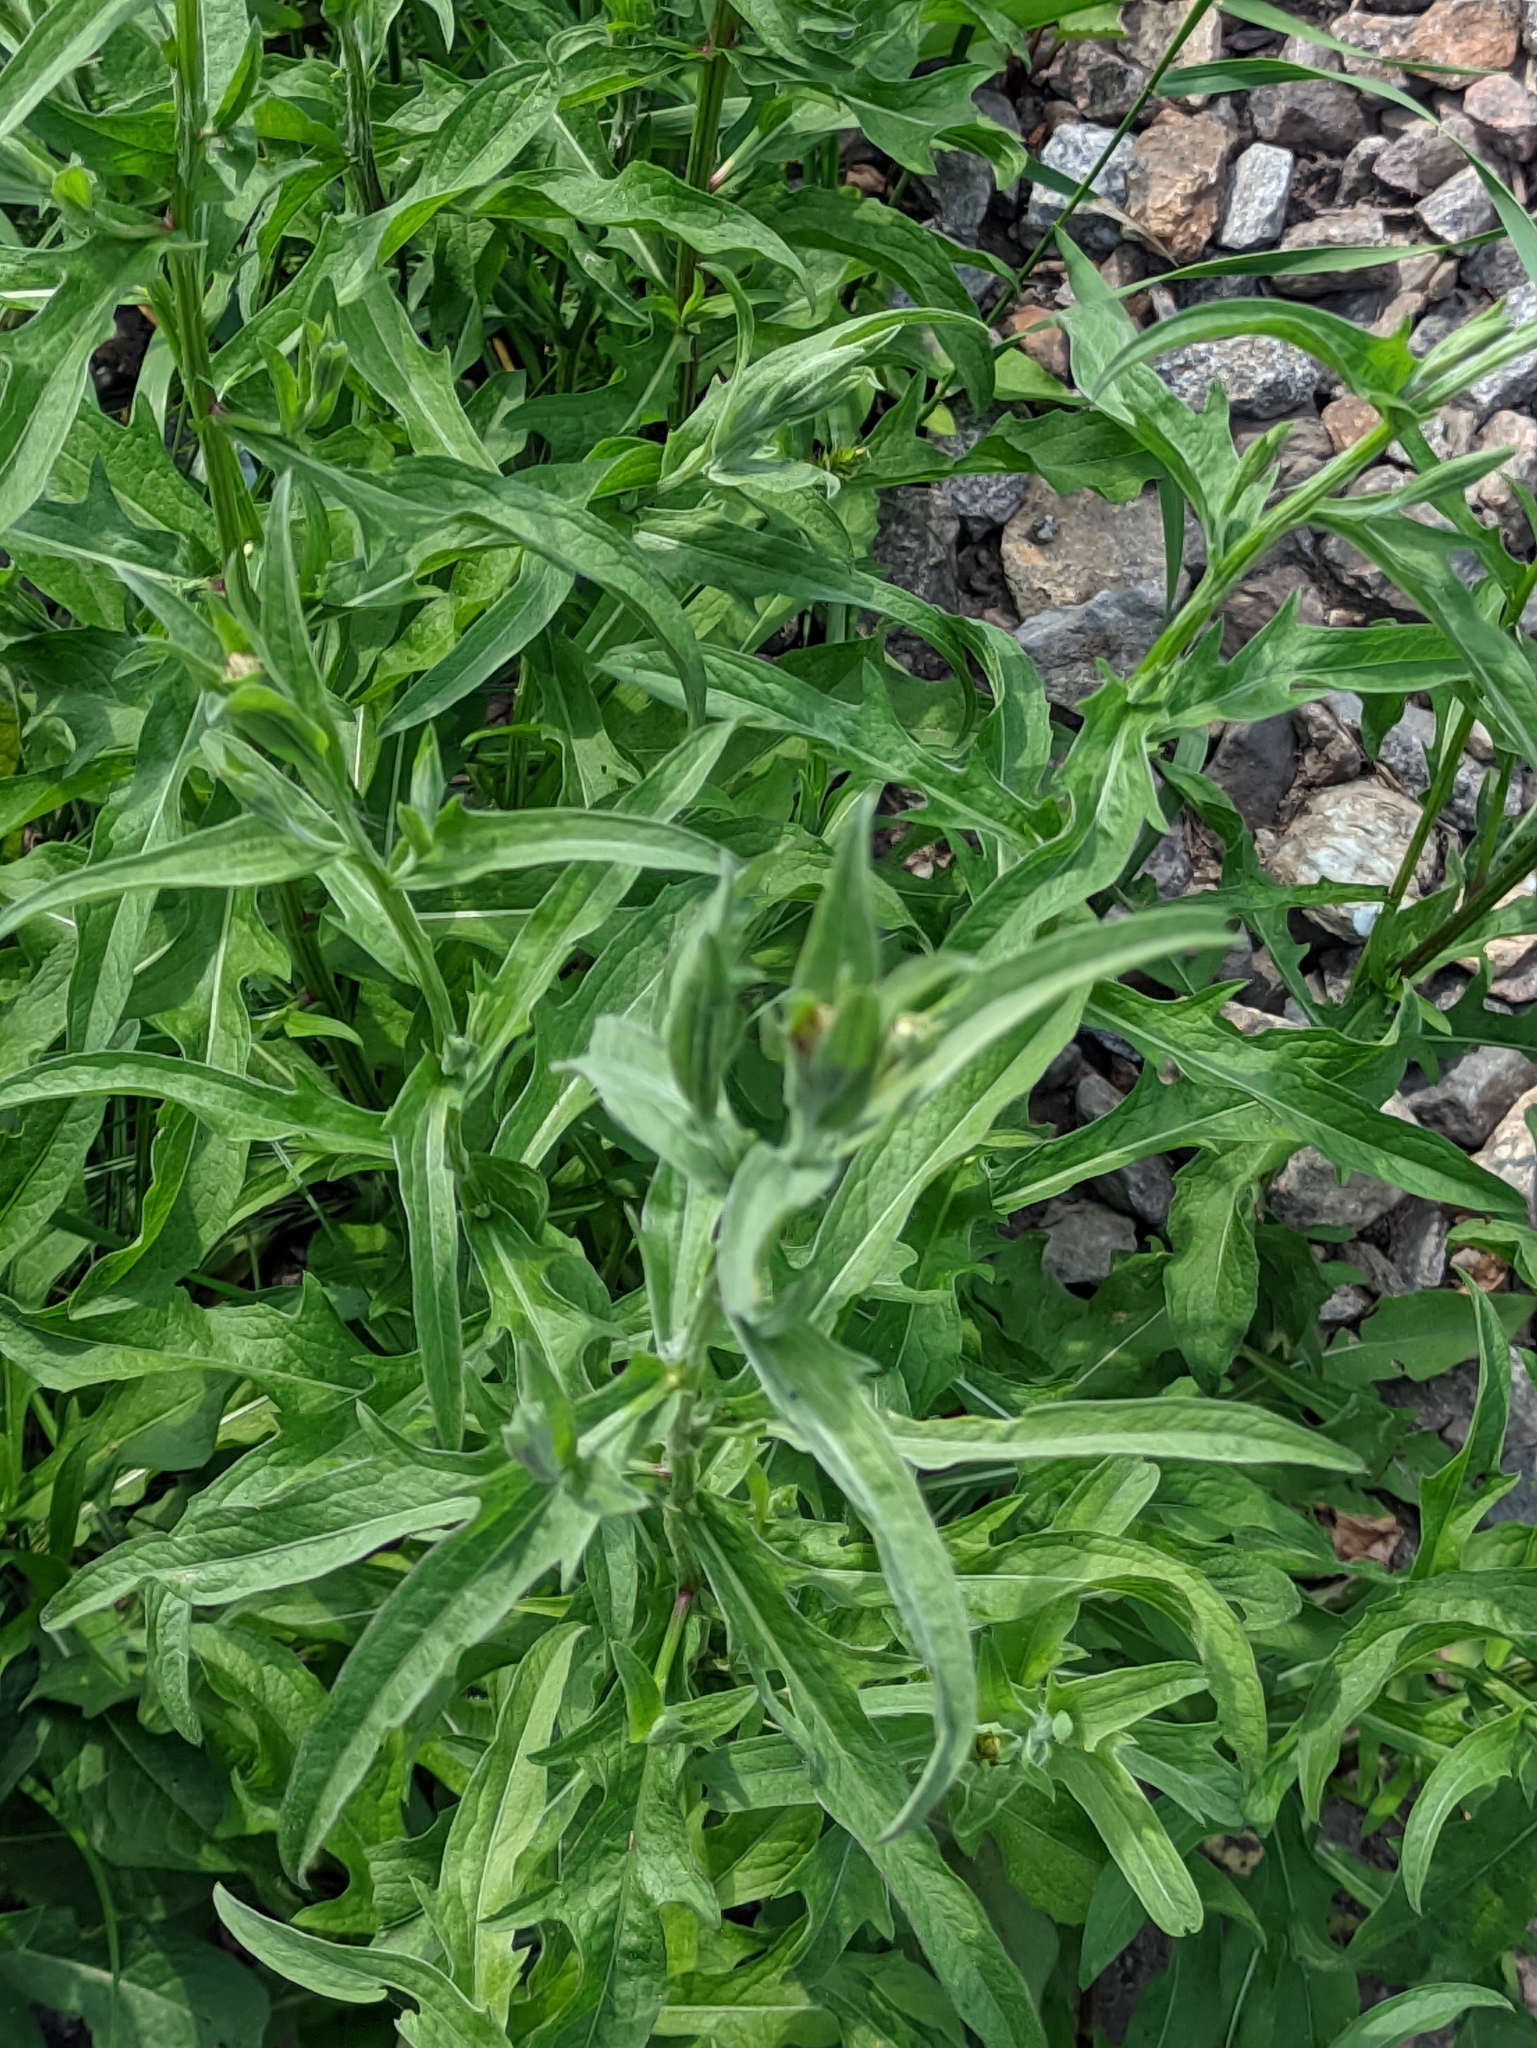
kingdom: Plantae
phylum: Tracheophyta
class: Magnoliopsida
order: Asterales
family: Asteraceae
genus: Centaurea
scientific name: Centaurea jacea
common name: Brown knapweed
